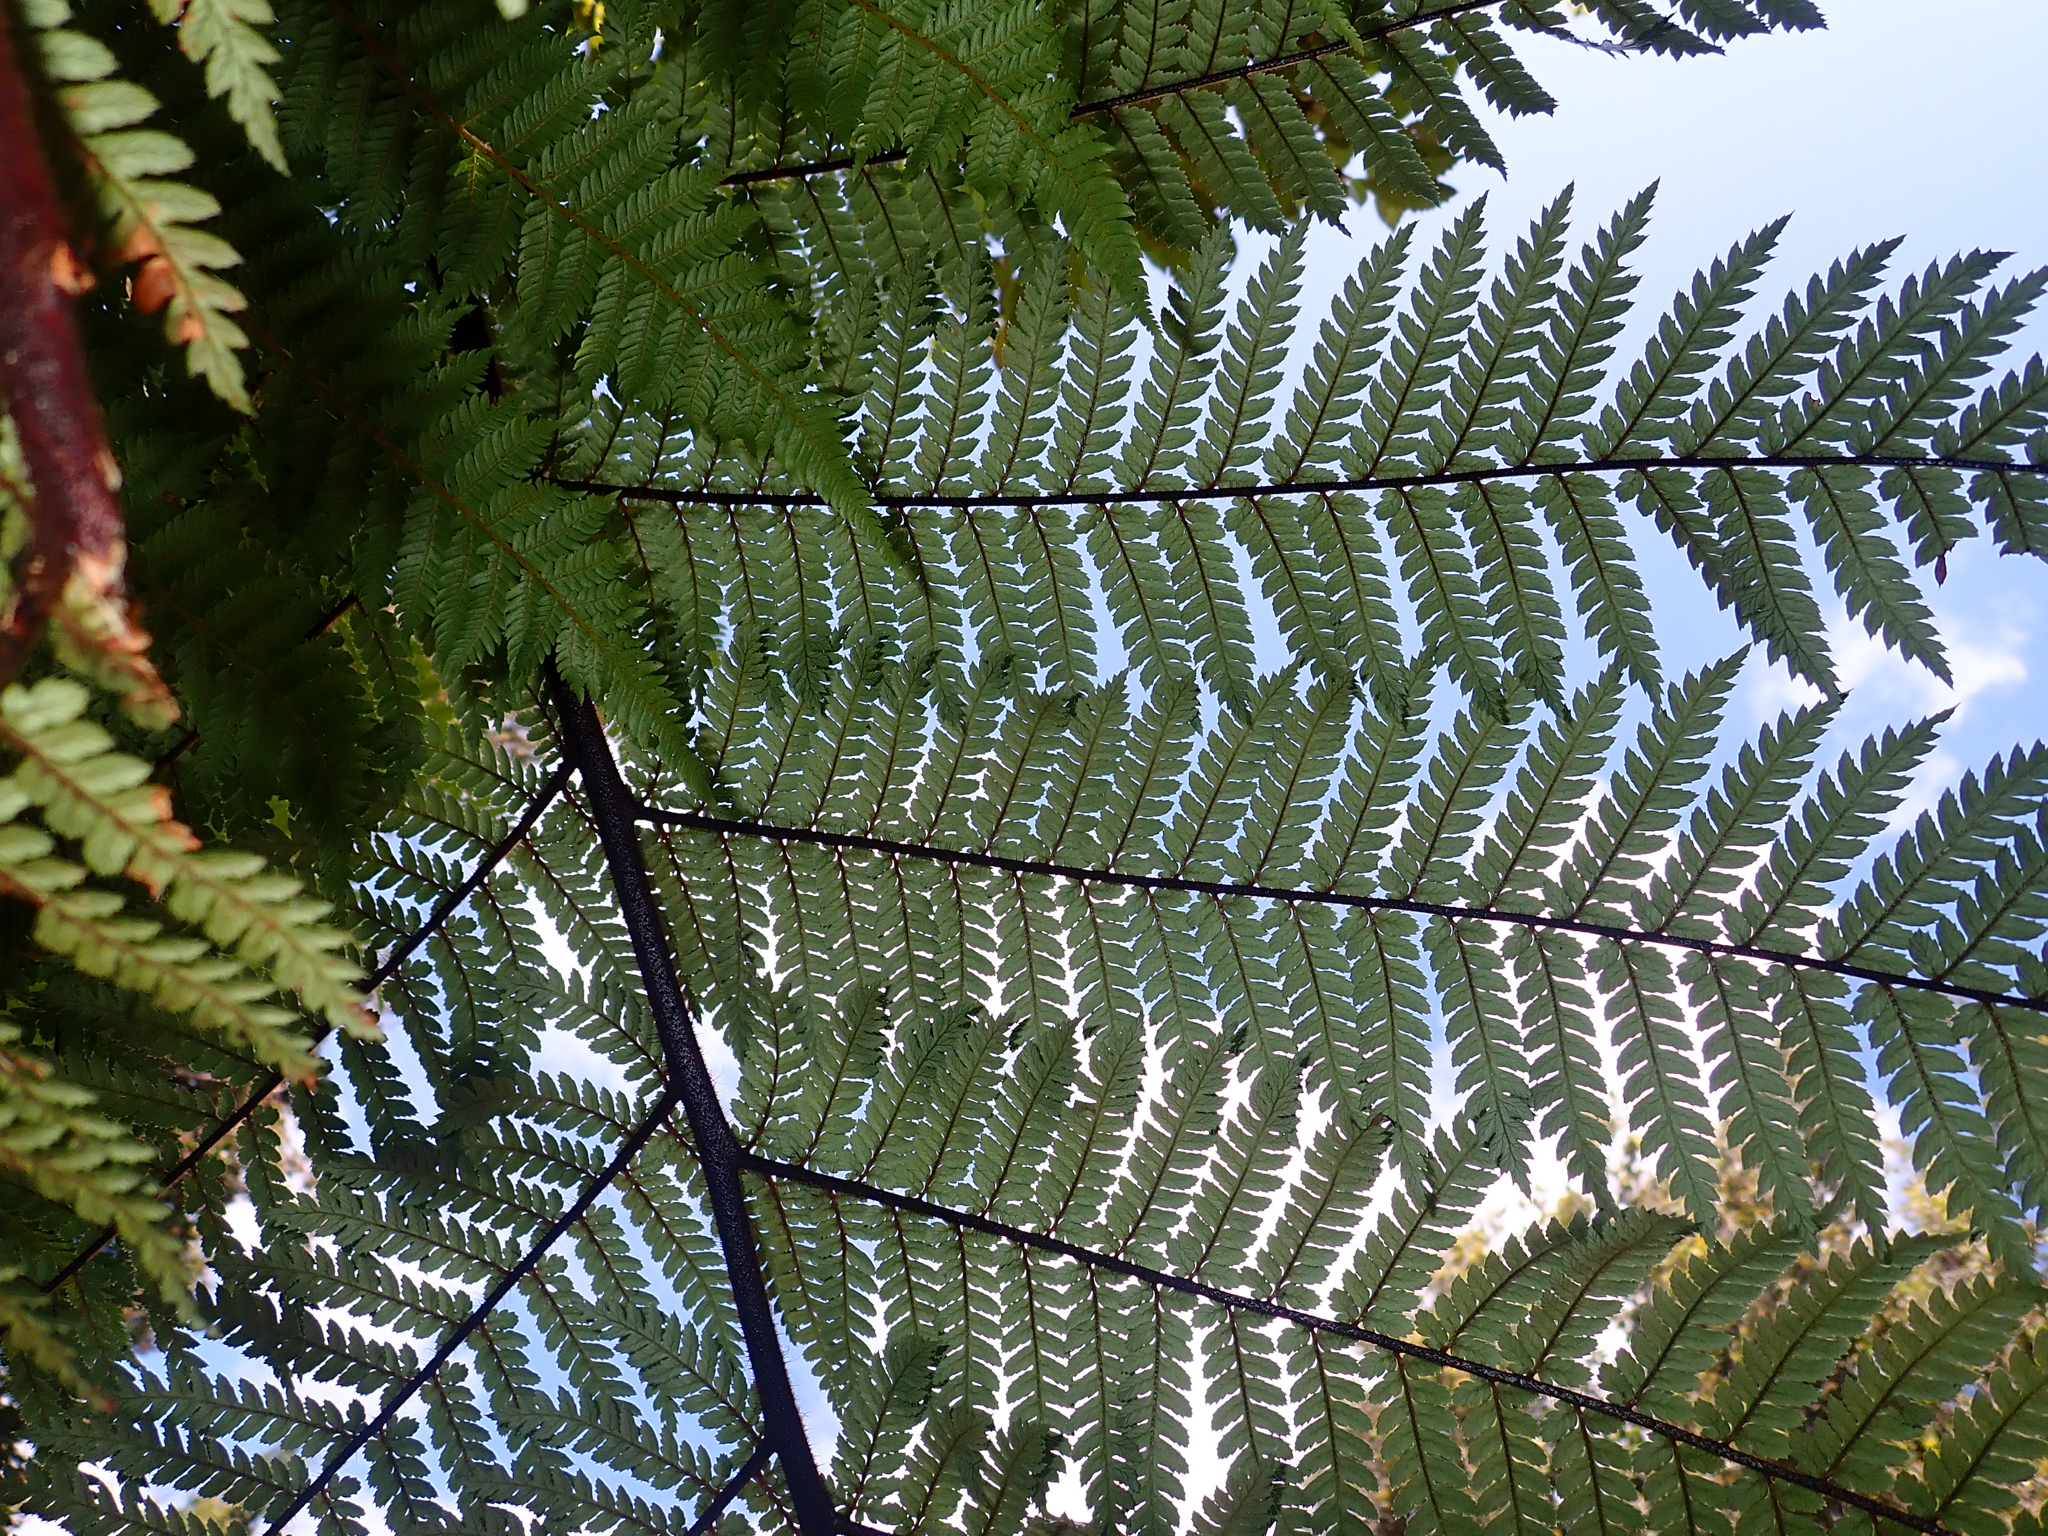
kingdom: Plantae
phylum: Tracheophyta
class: Polypodiopsida
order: Cyatheales
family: Dicksoniaceae
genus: Dicksonia
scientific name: Dicksonia squarrosa
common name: Hard treefern
